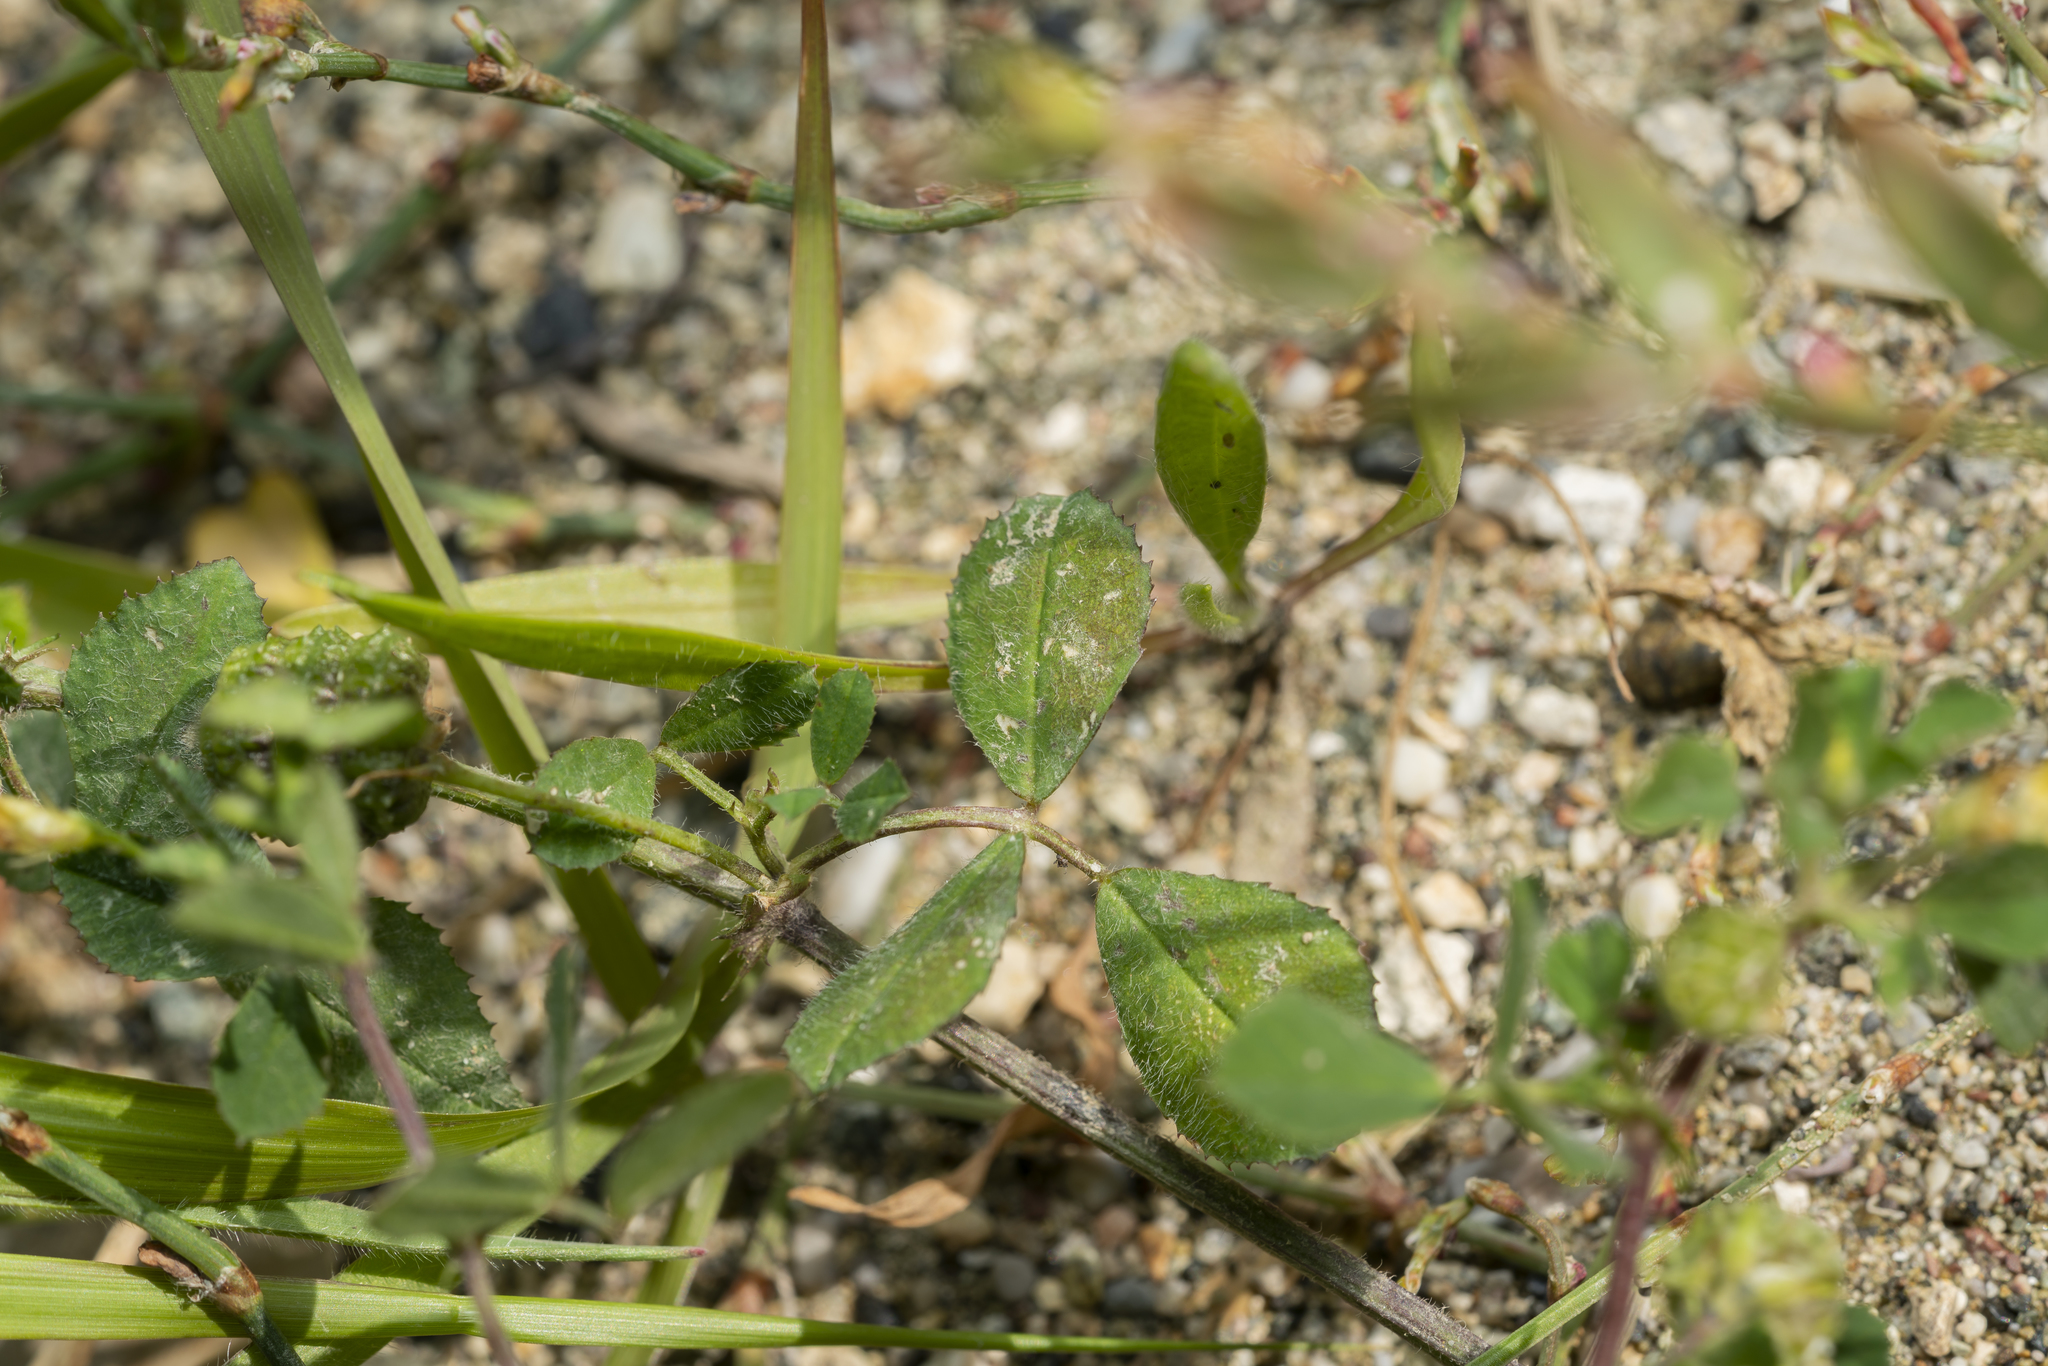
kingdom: Plantae
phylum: Tracheophyta
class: Magnoliopsida
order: Fabales
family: Fabaceae
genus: Medicago
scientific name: Medicago turbinata
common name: Southern medick
